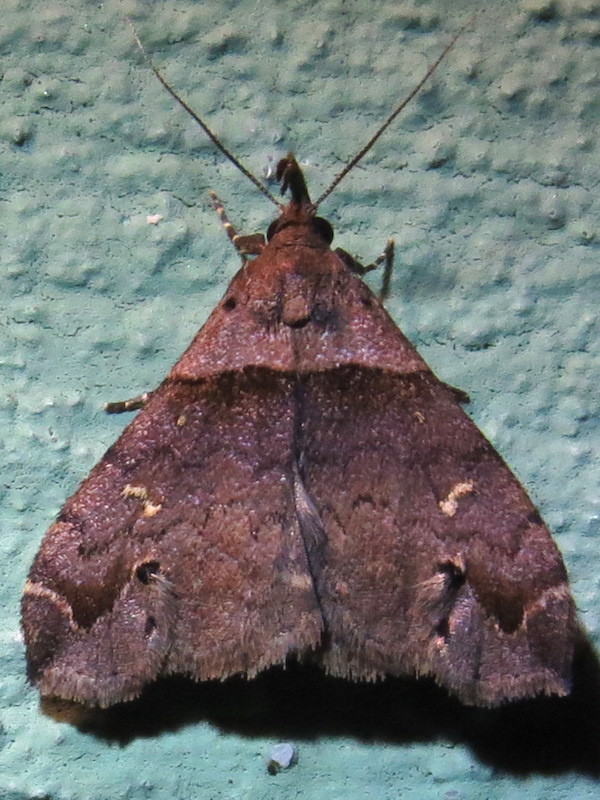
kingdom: Animalia
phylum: Arthropoda
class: Insecta
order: Lepidoptera
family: Erebidae
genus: Lascoria
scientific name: Lascoria ambigualis
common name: Ambiguous moth
